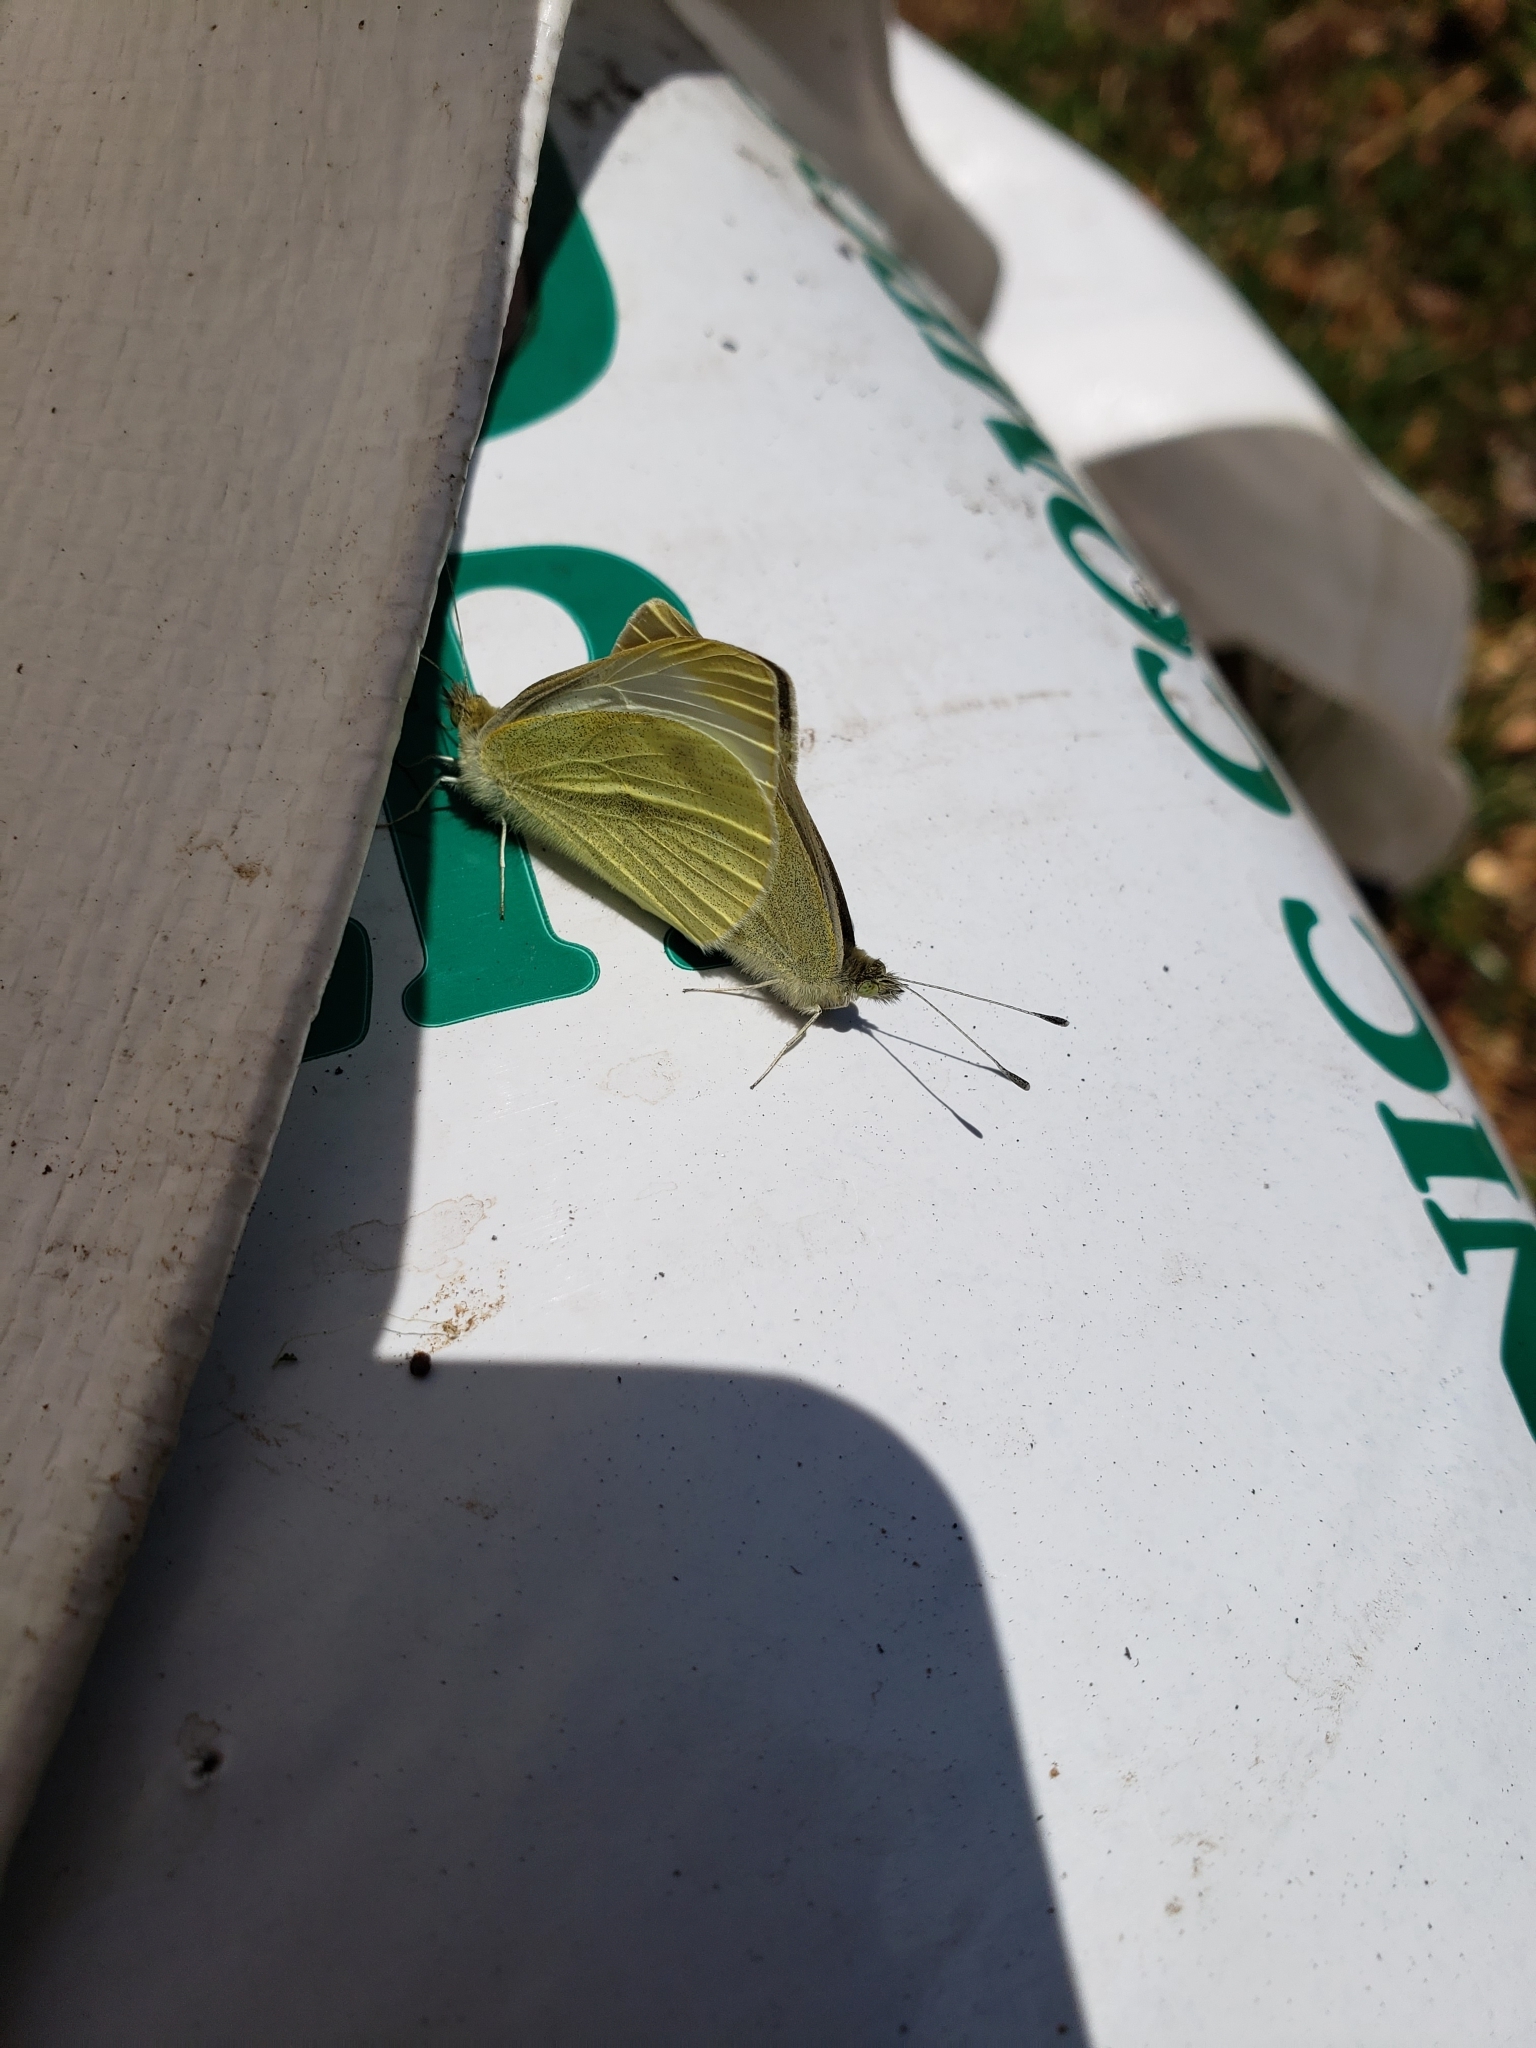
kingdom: Animalia
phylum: Arthropoda
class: Insecta
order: Lepidoptera
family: Pieridae
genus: Pieris
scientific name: Pieris rapae
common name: Small white
